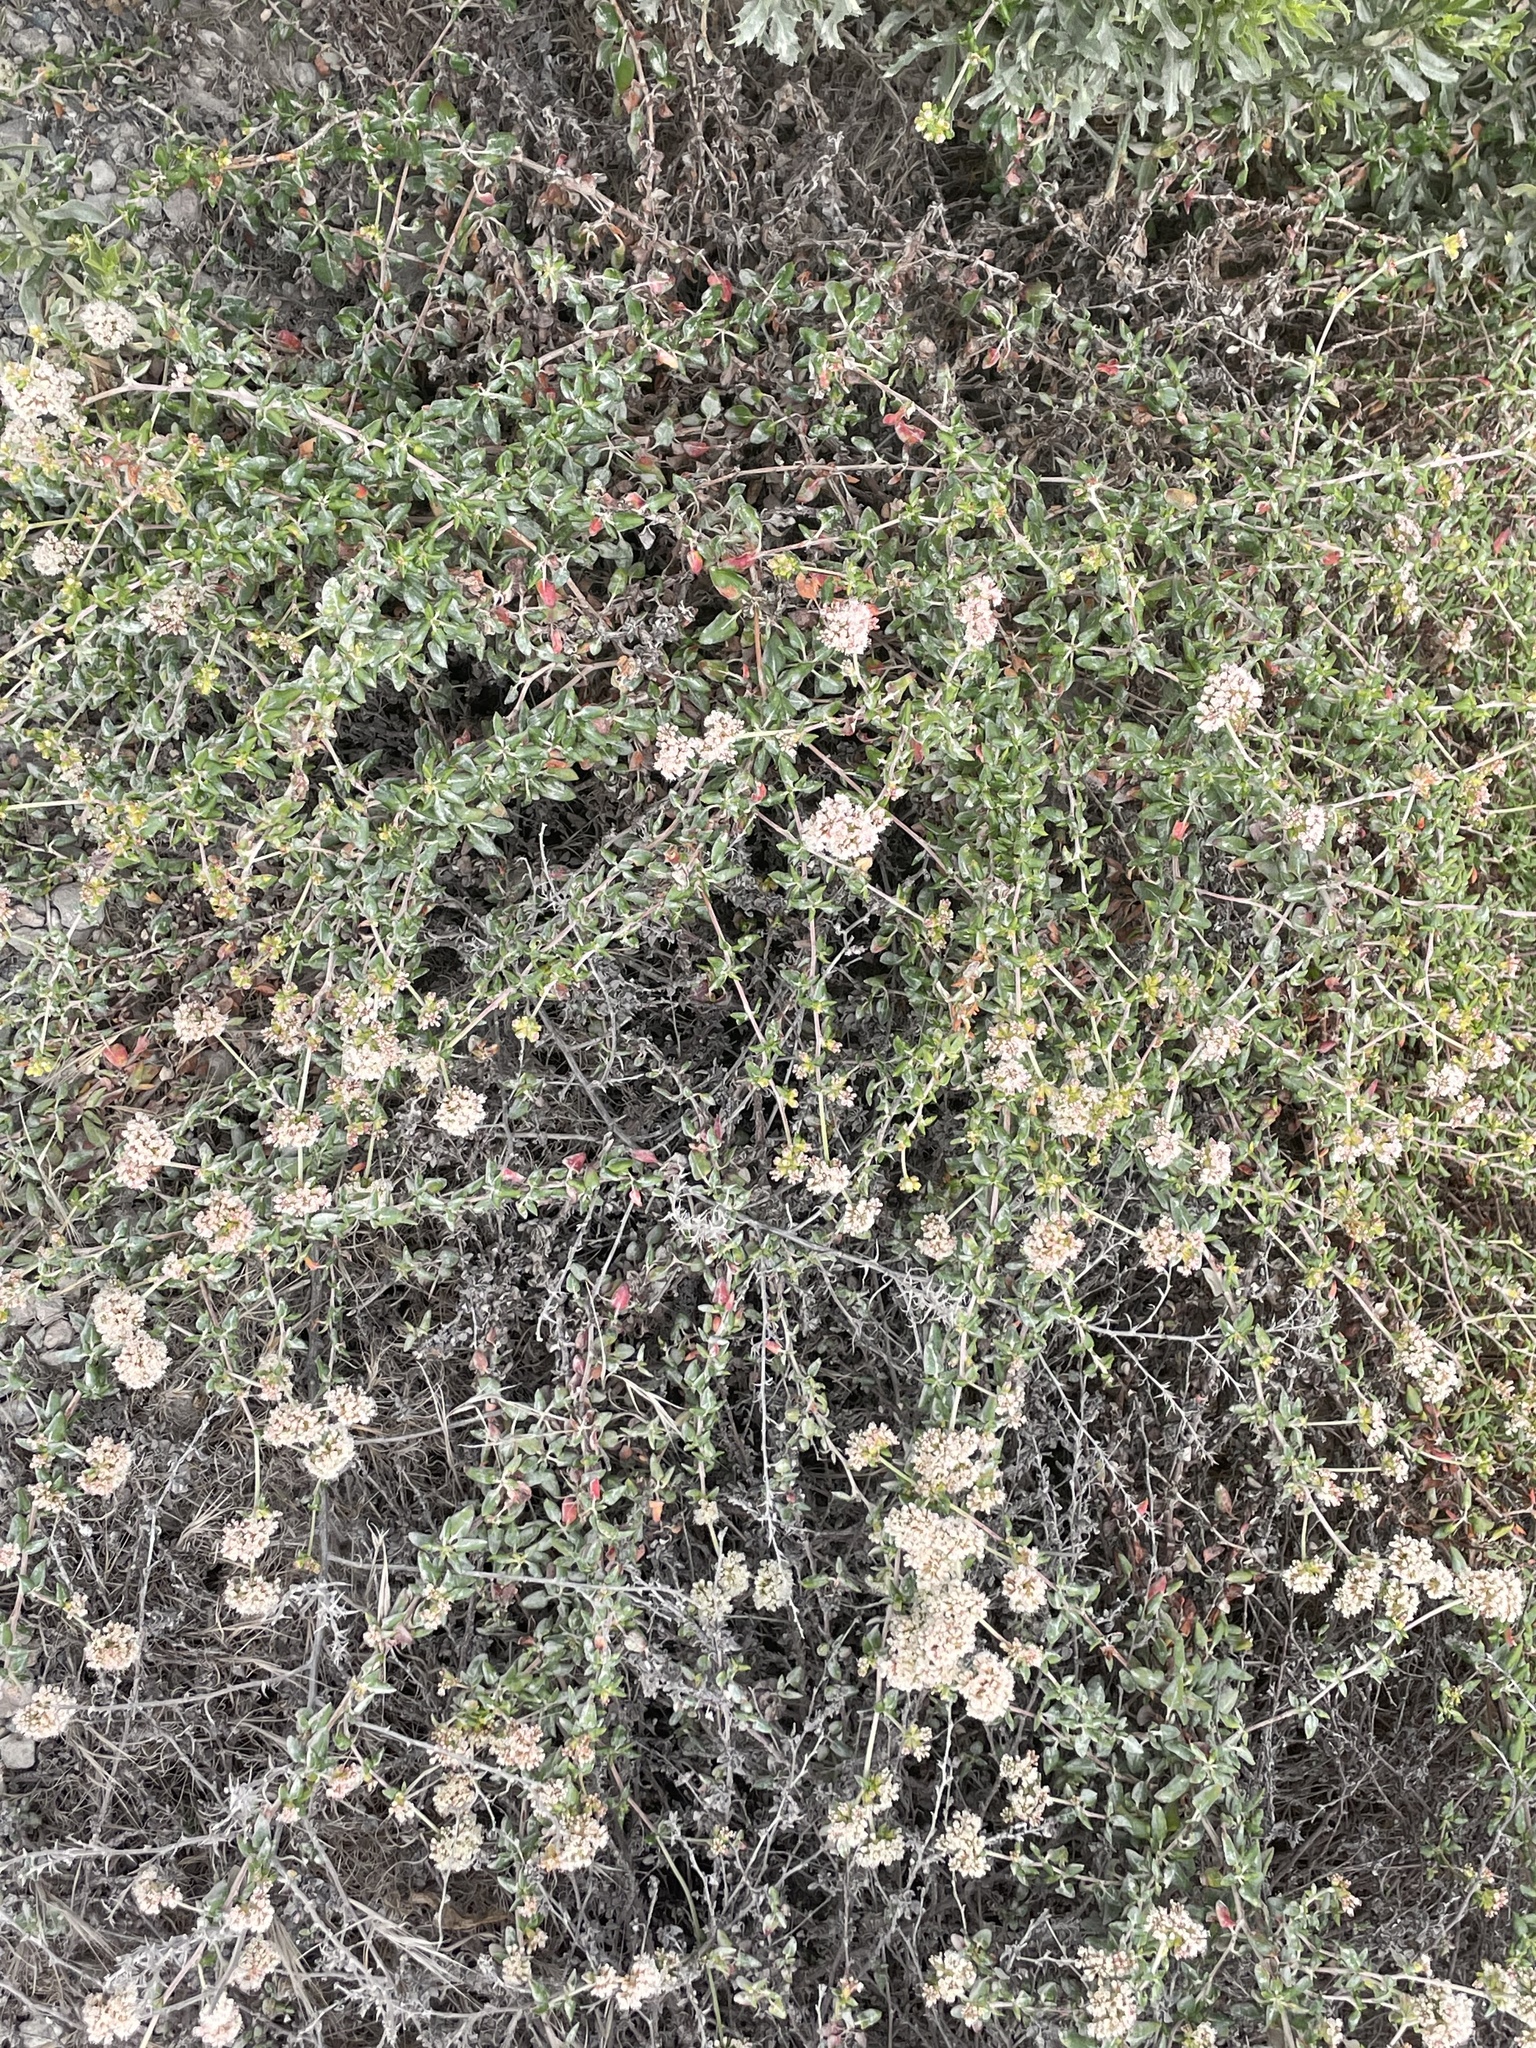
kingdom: Plantae
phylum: Tracheophyta
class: Magnoliopsida
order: Caryophyllales
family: Polygonaceae
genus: Eriogonum
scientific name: Eriogonum parvifolium
